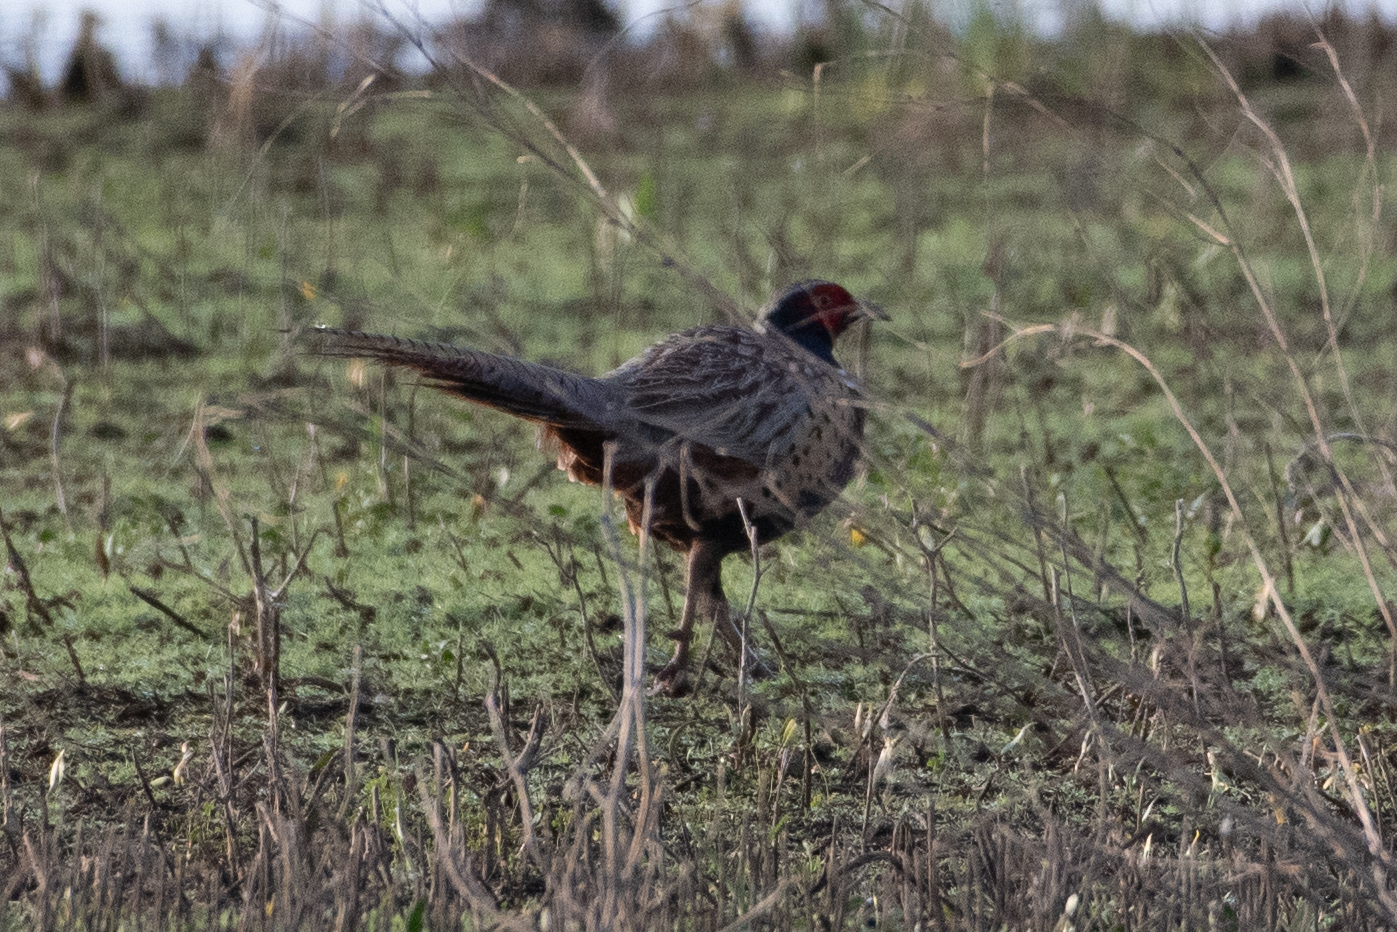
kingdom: Animalia
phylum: Chordata
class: Aves
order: Galliformes
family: Phasianidae
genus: Phasianus
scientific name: Phasianus colchicus
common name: Common pheasant
